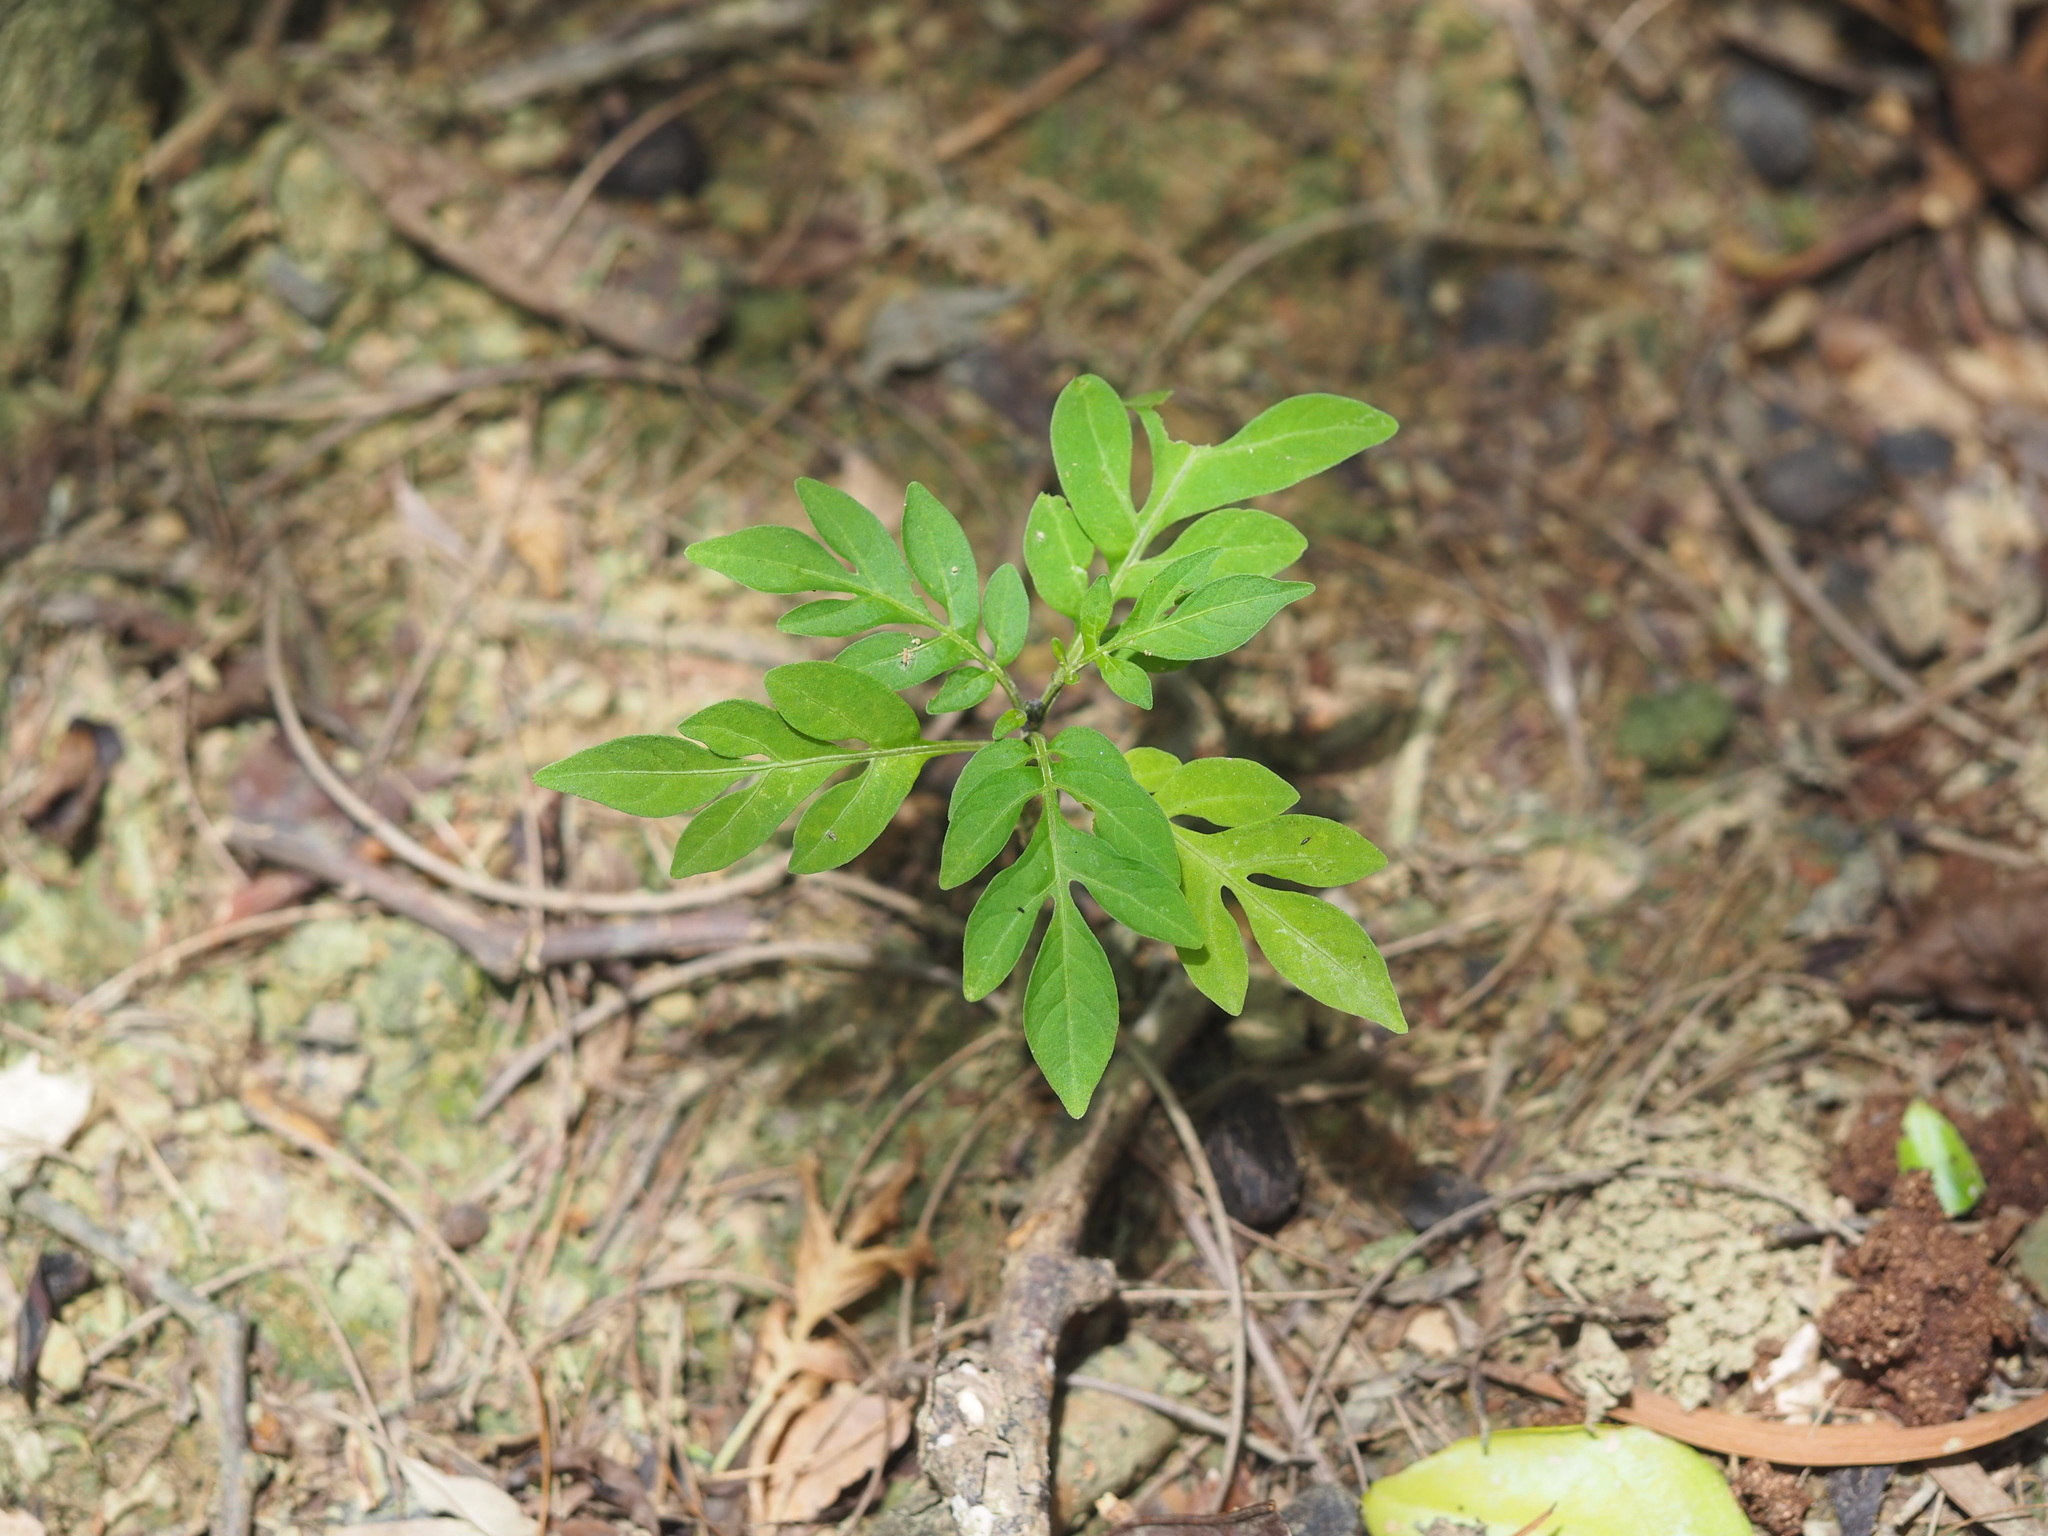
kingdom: Plantae
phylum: Tracheophyta
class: Magnoliopsida
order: Solanales
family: Solanaceae
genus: Solanum
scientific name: Solanum seaforthianum
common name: Brazilian nightshade
